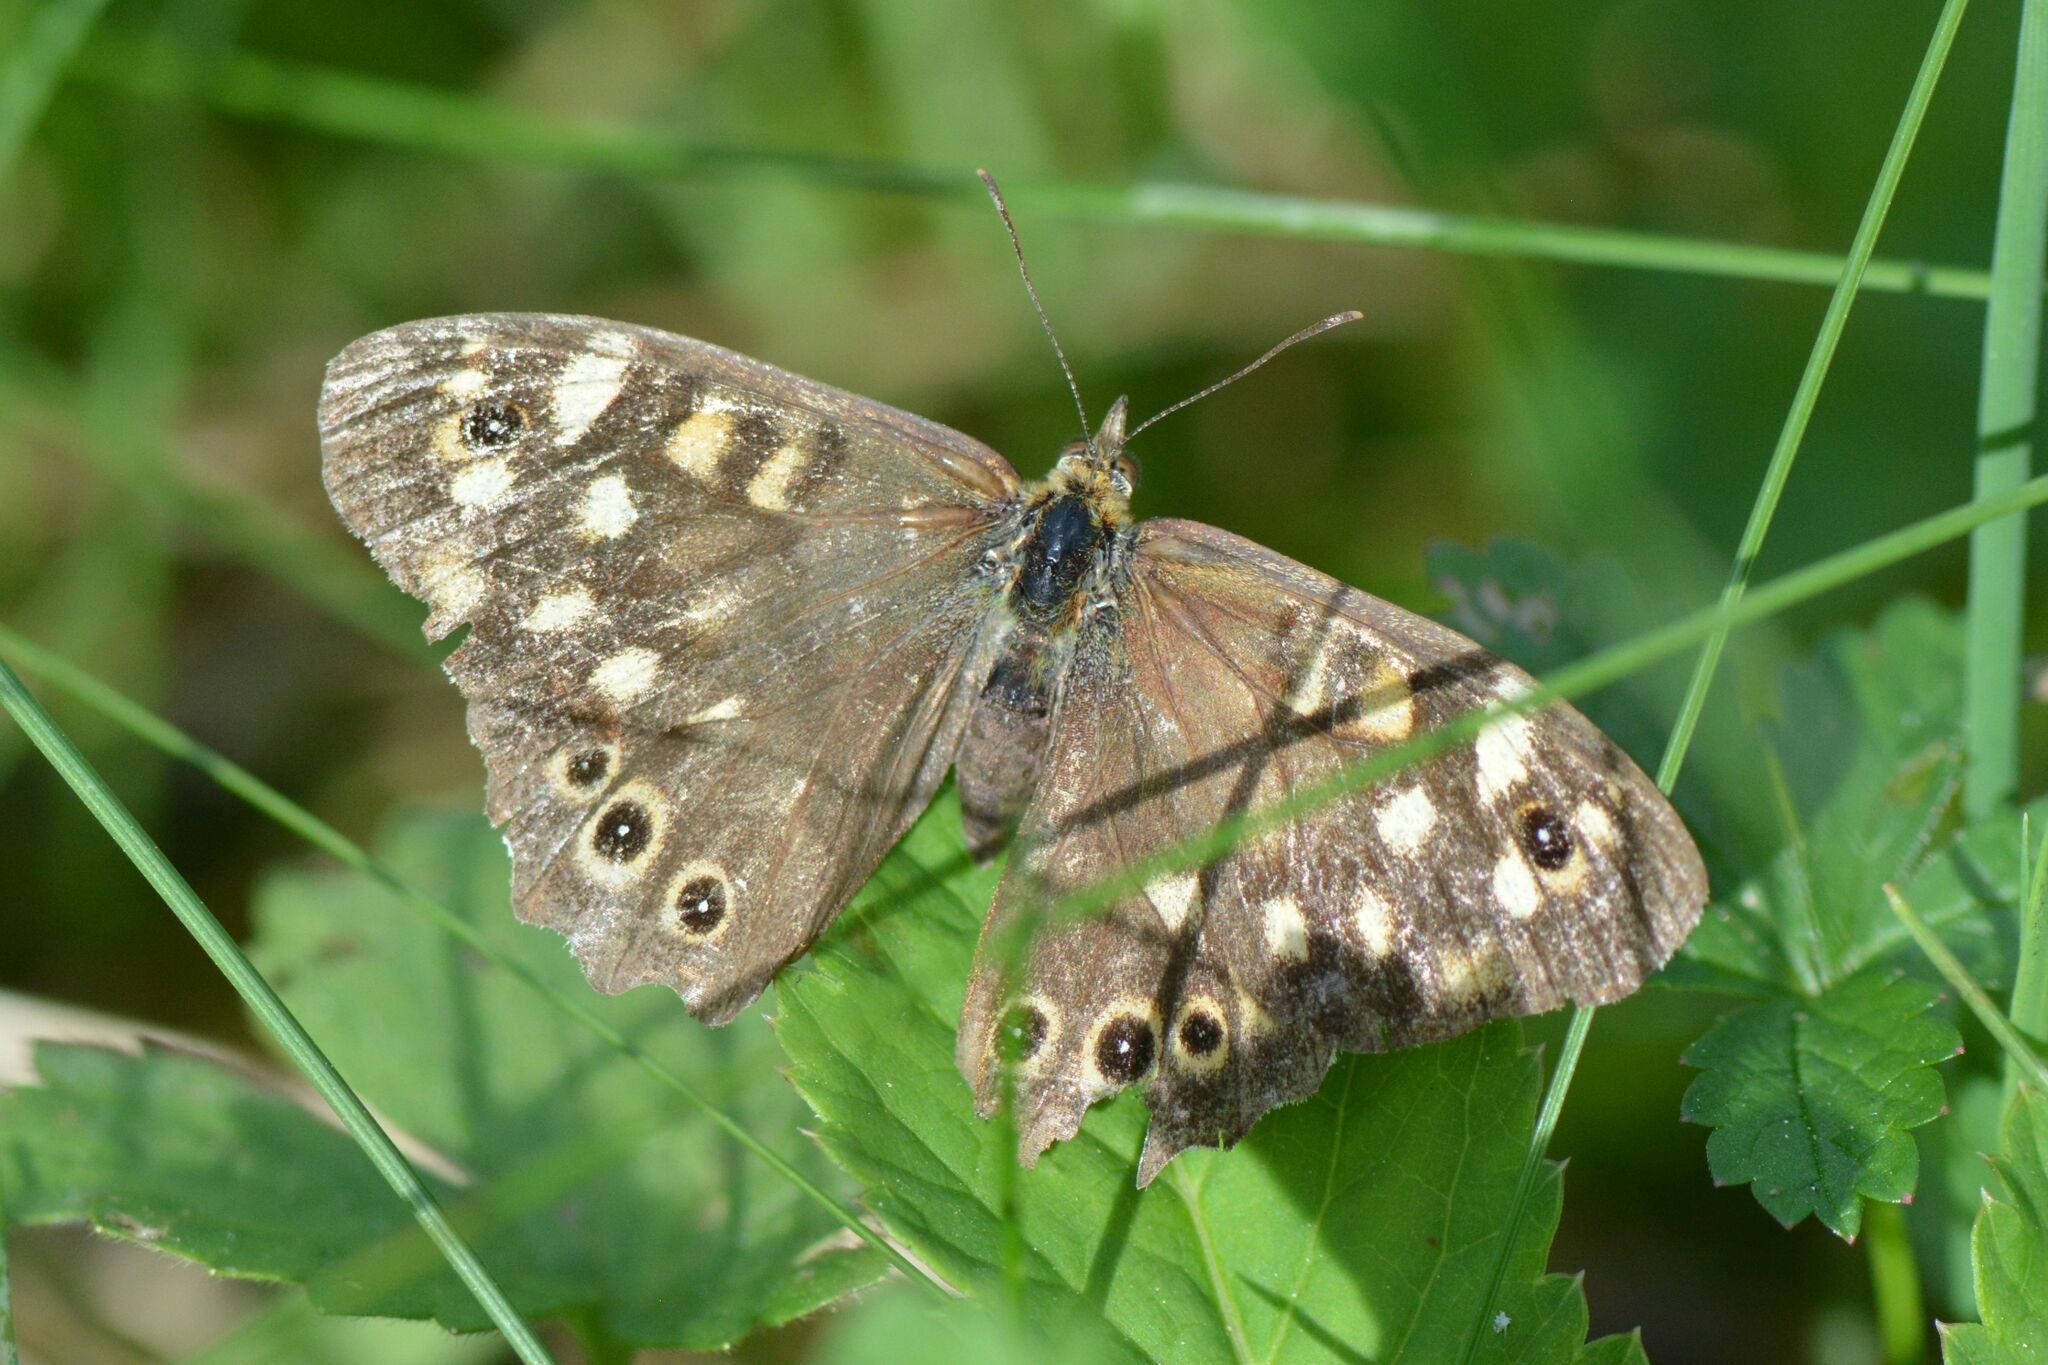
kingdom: Animalia
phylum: Arthropoda
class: Insecta
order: Lepidoptera
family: Nymphalidae
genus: Pararge
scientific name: Pararge aegeria
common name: Speckled wood
